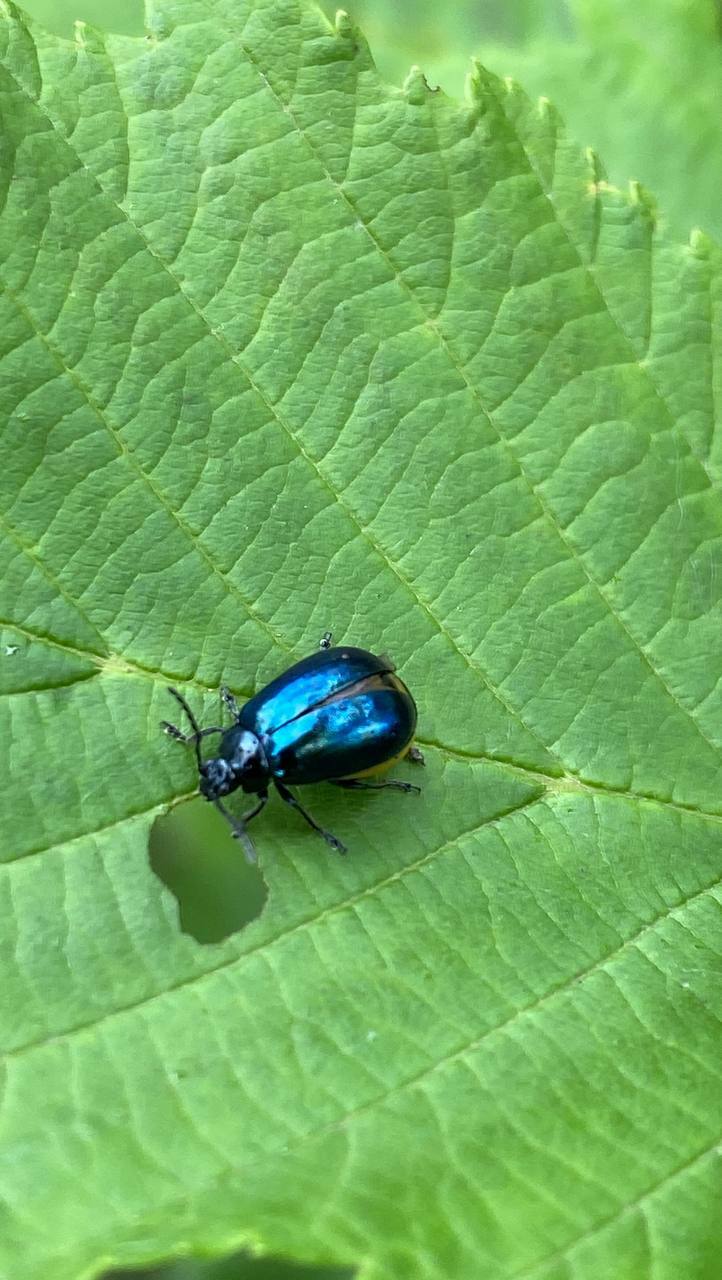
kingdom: Animalia
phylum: Arthropoda
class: Insecta
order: Coleoptera
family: Chrysomelidae
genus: Agelastica
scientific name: Agelastica alni
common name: Alder leaf beetle
